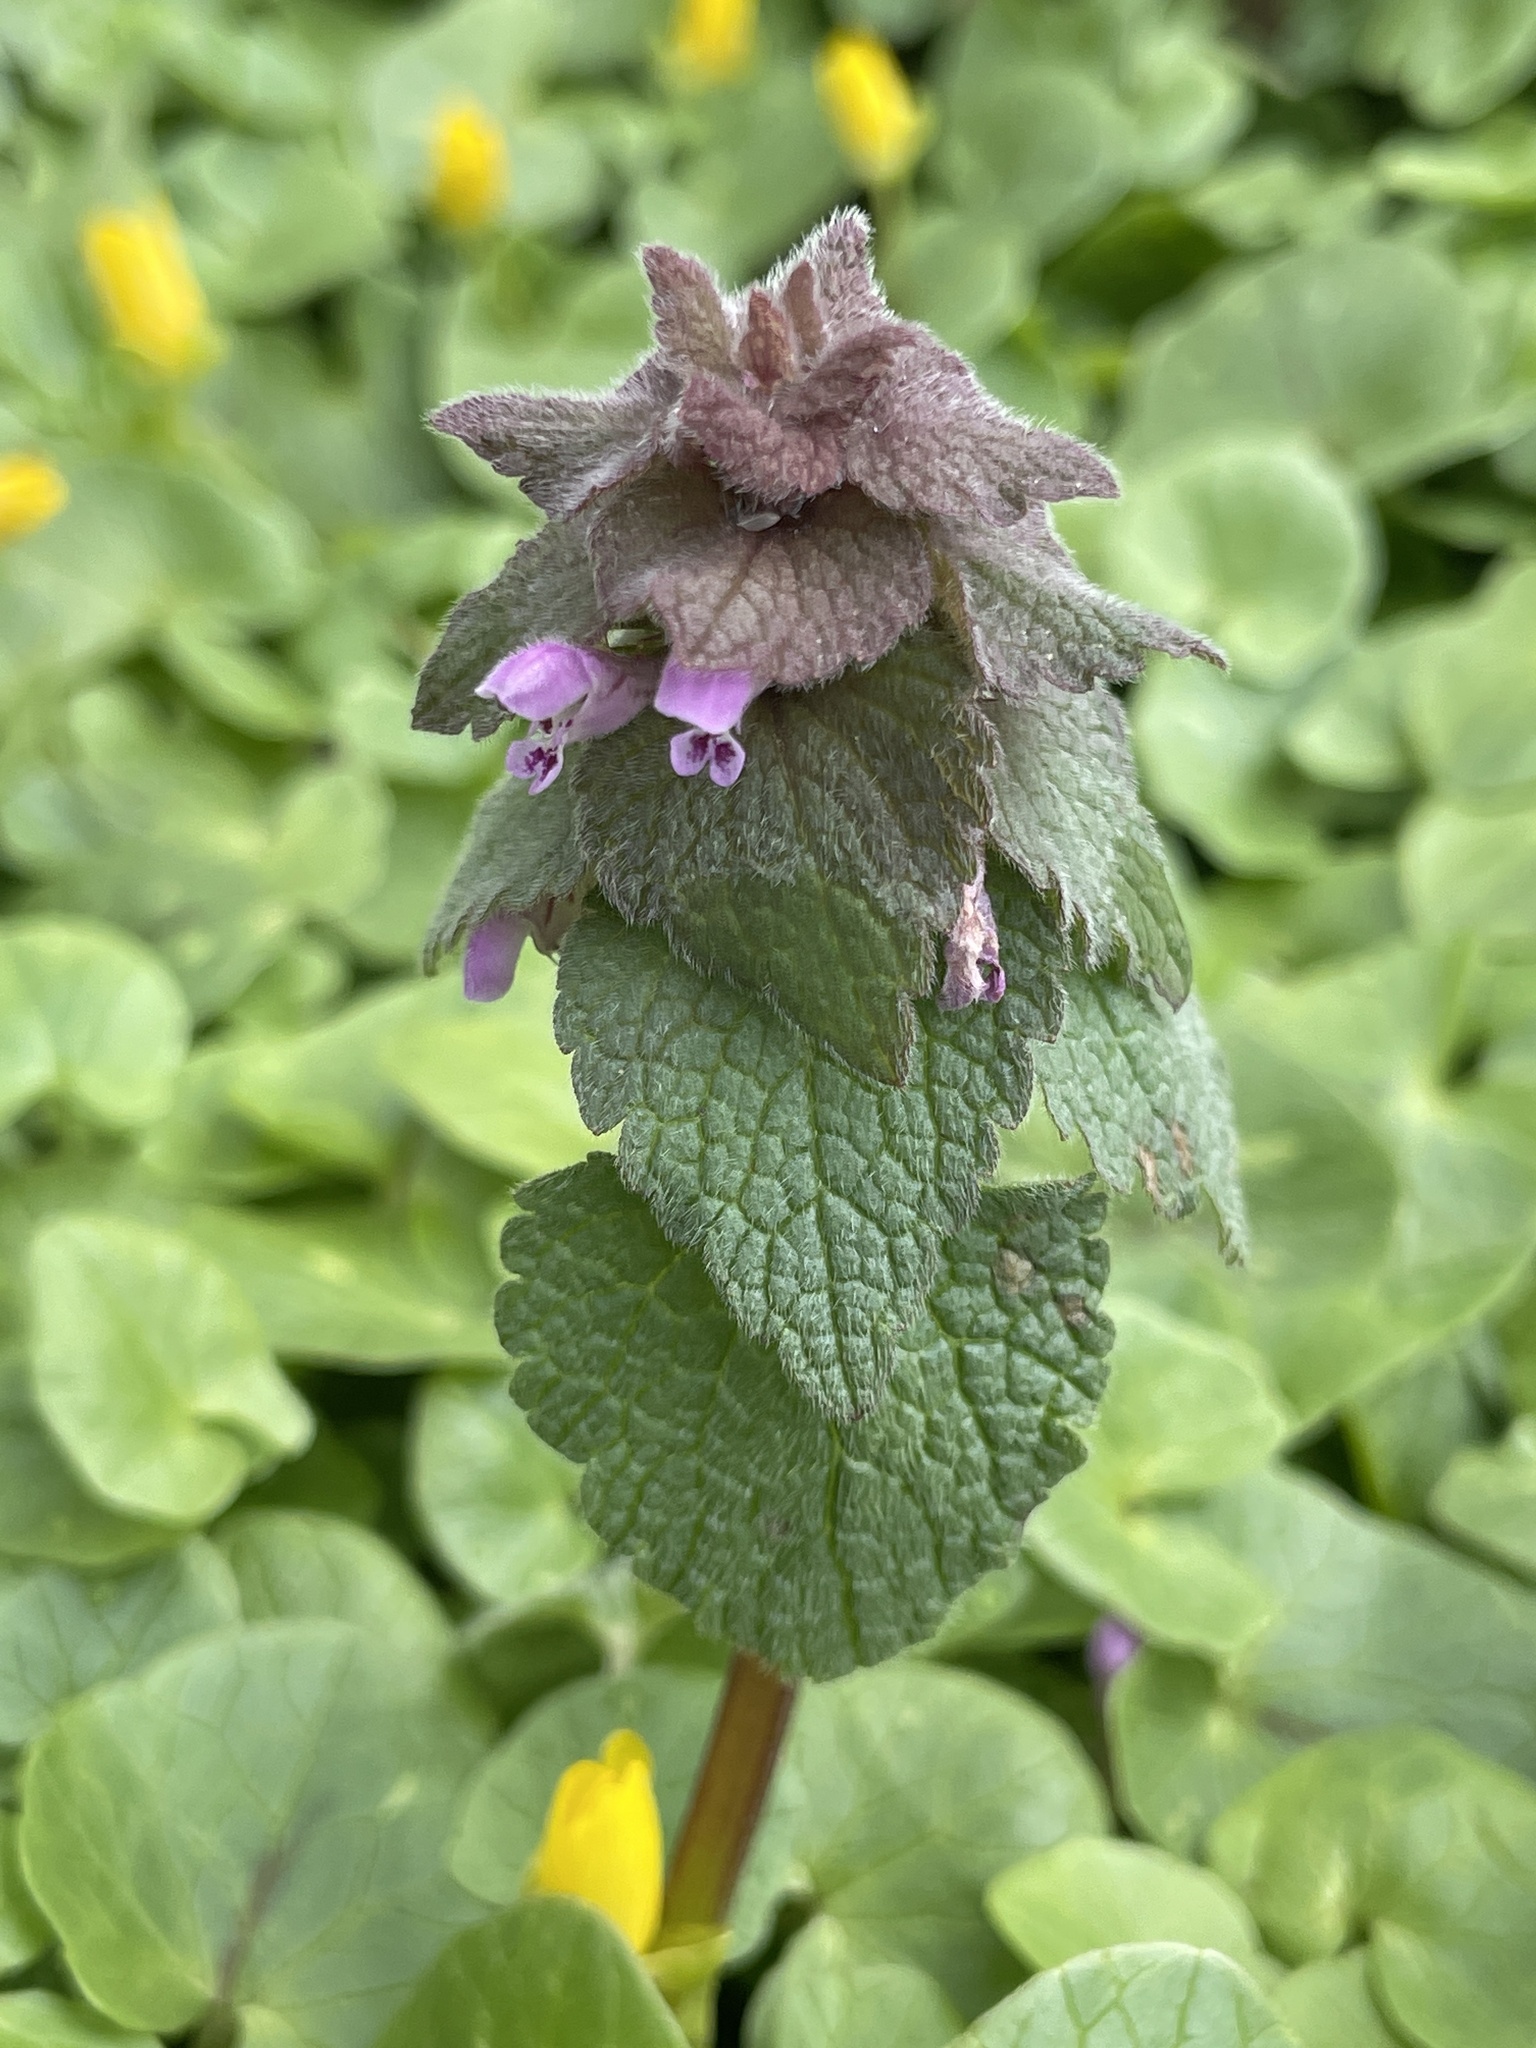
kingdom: Plantae
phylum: Tracheophyta
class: Magnoliopsida
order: Lamiales
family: Lamiaceae
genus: Lamium
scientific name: Lamium purpureum
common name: Red dead-nettle
